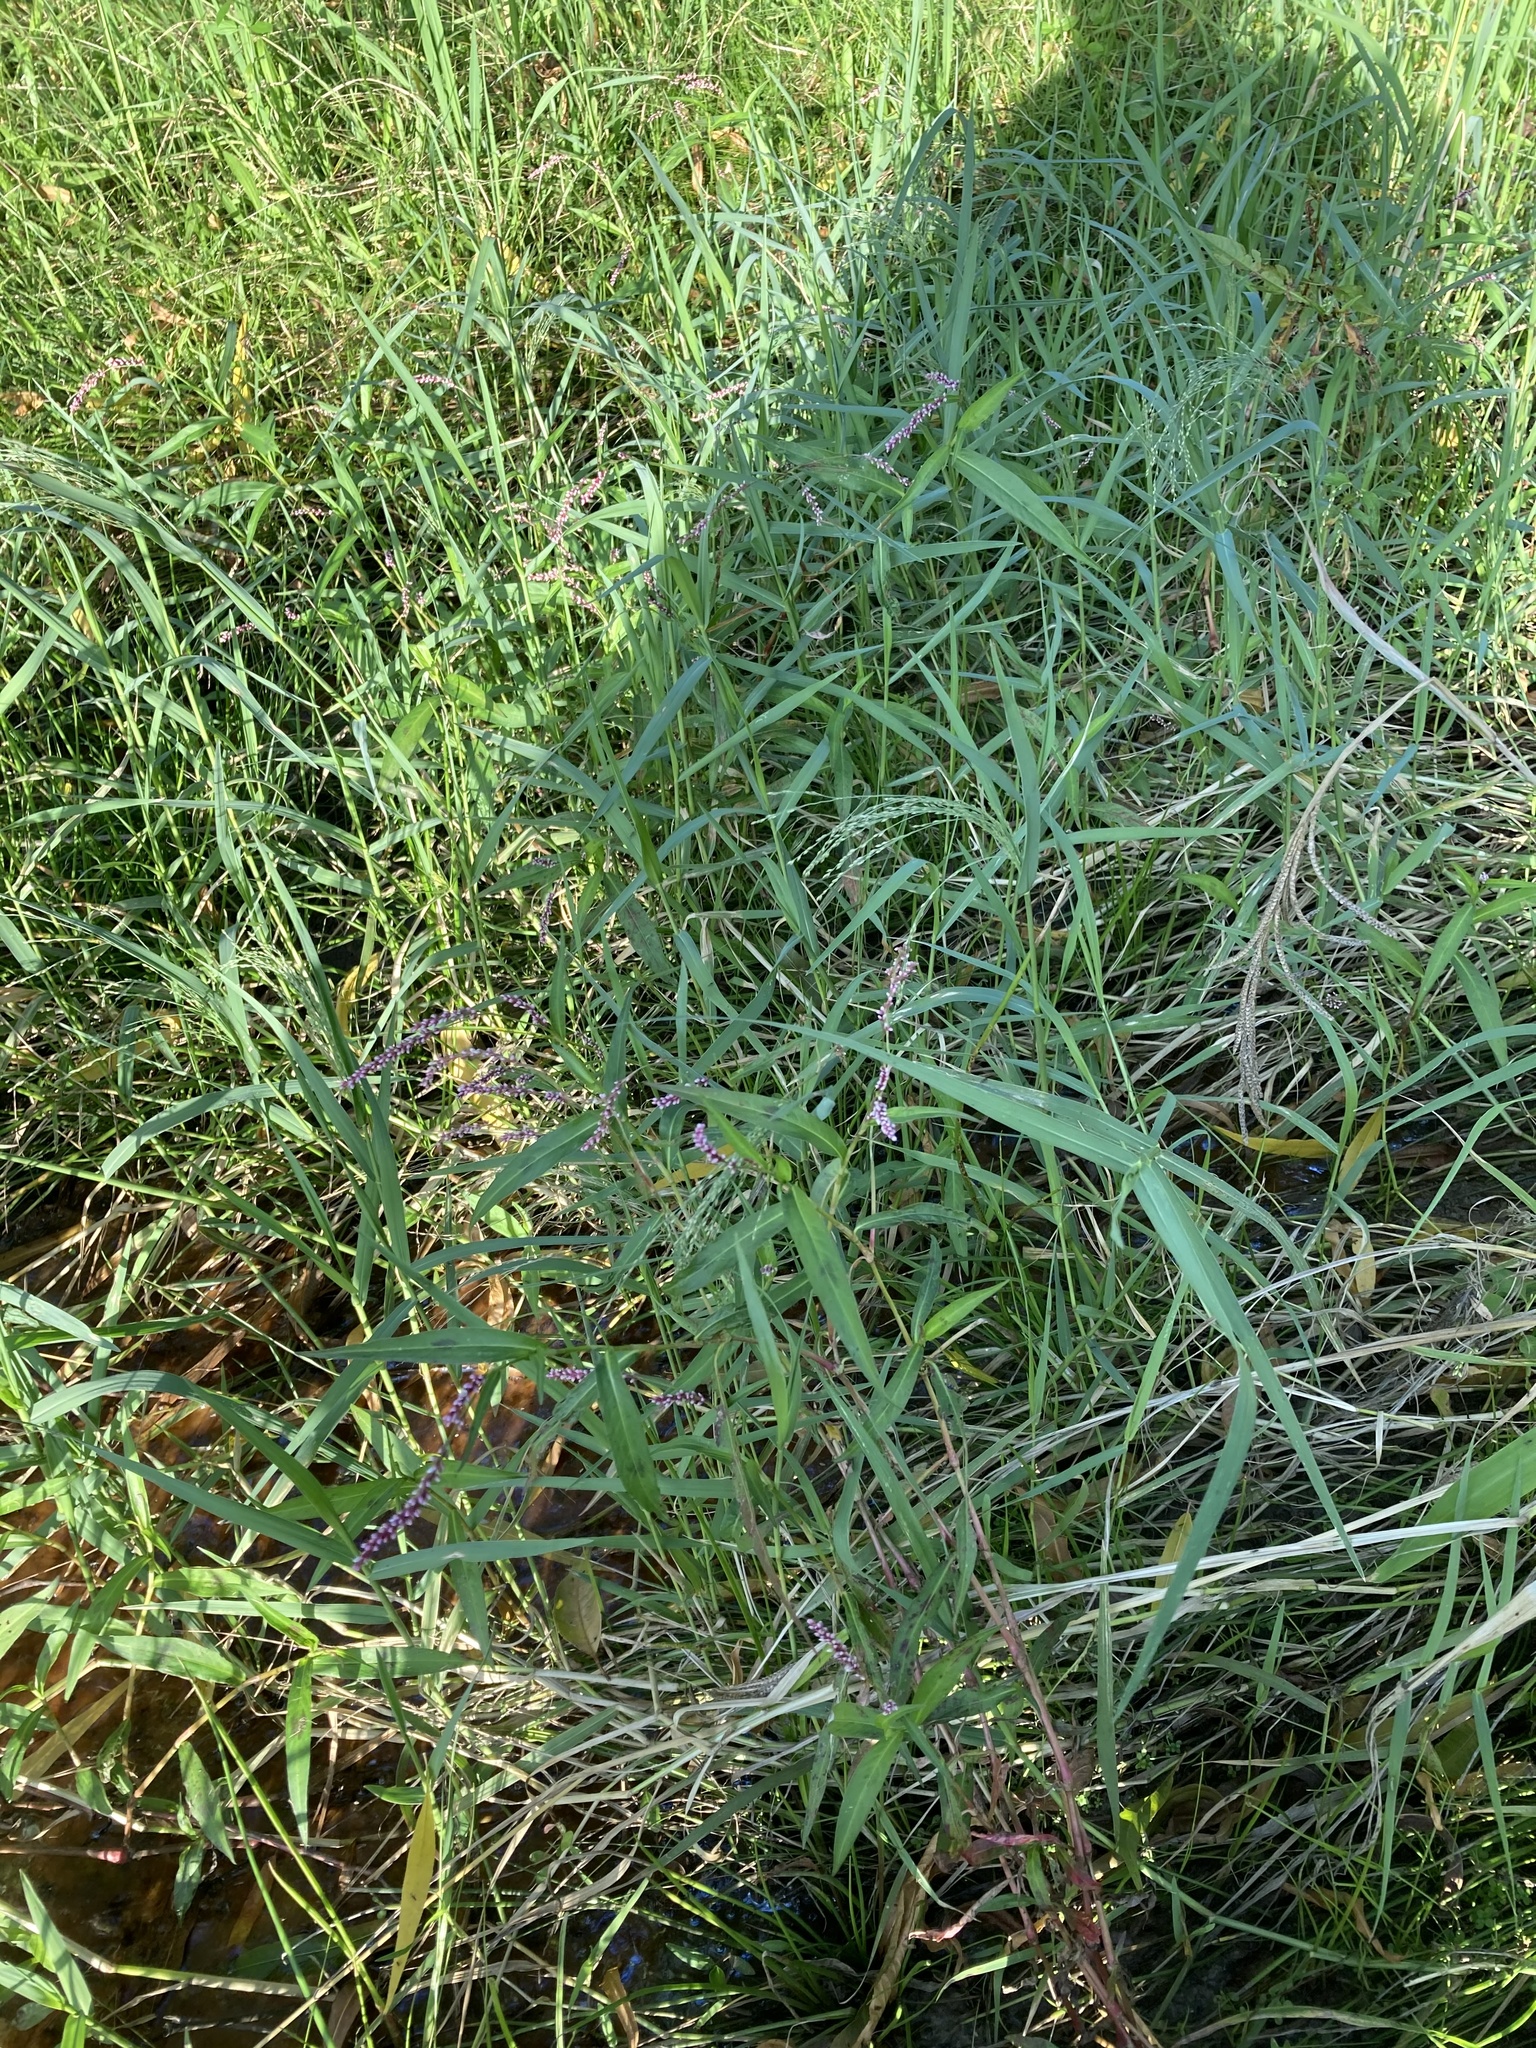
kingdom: Plantae
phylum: Tracheophyta
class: Magnoliopsida
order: Caryophyllales
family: Polygonaceae
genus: Persicaria
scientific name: Persicaria decipiens
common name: Willow-weed
